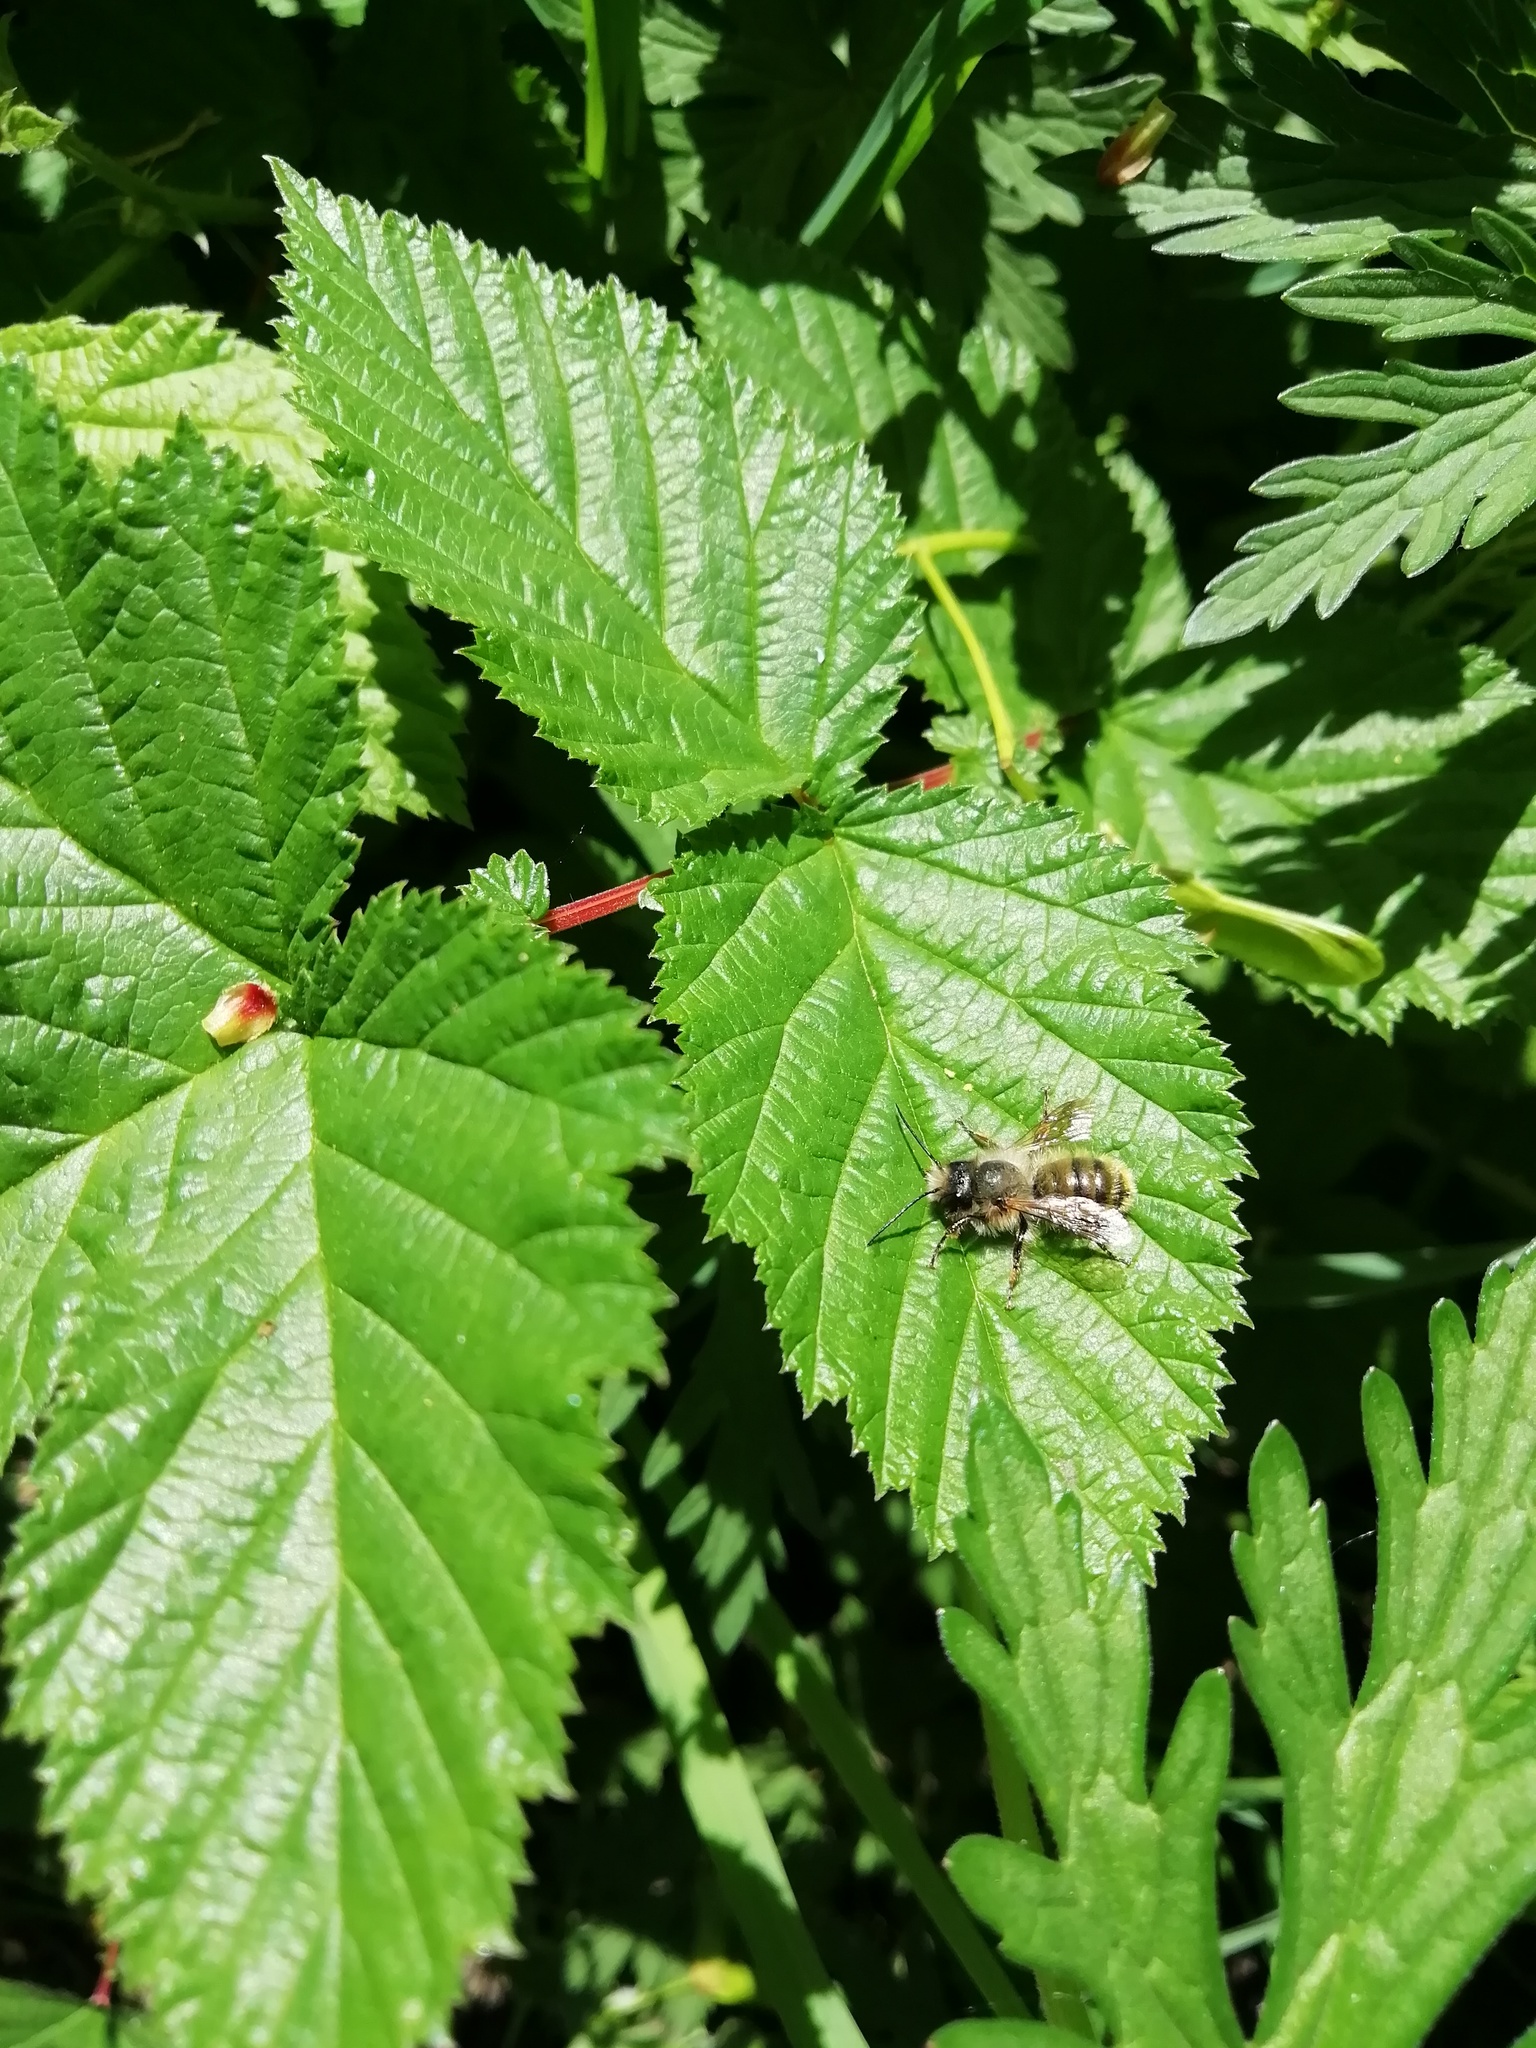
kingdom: Animalia
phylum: Arthropoda
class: Insecta
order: Hymenoptera
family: Megachilidae
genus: Osmia
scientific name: Osmia bicornis
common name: Red mason bee
